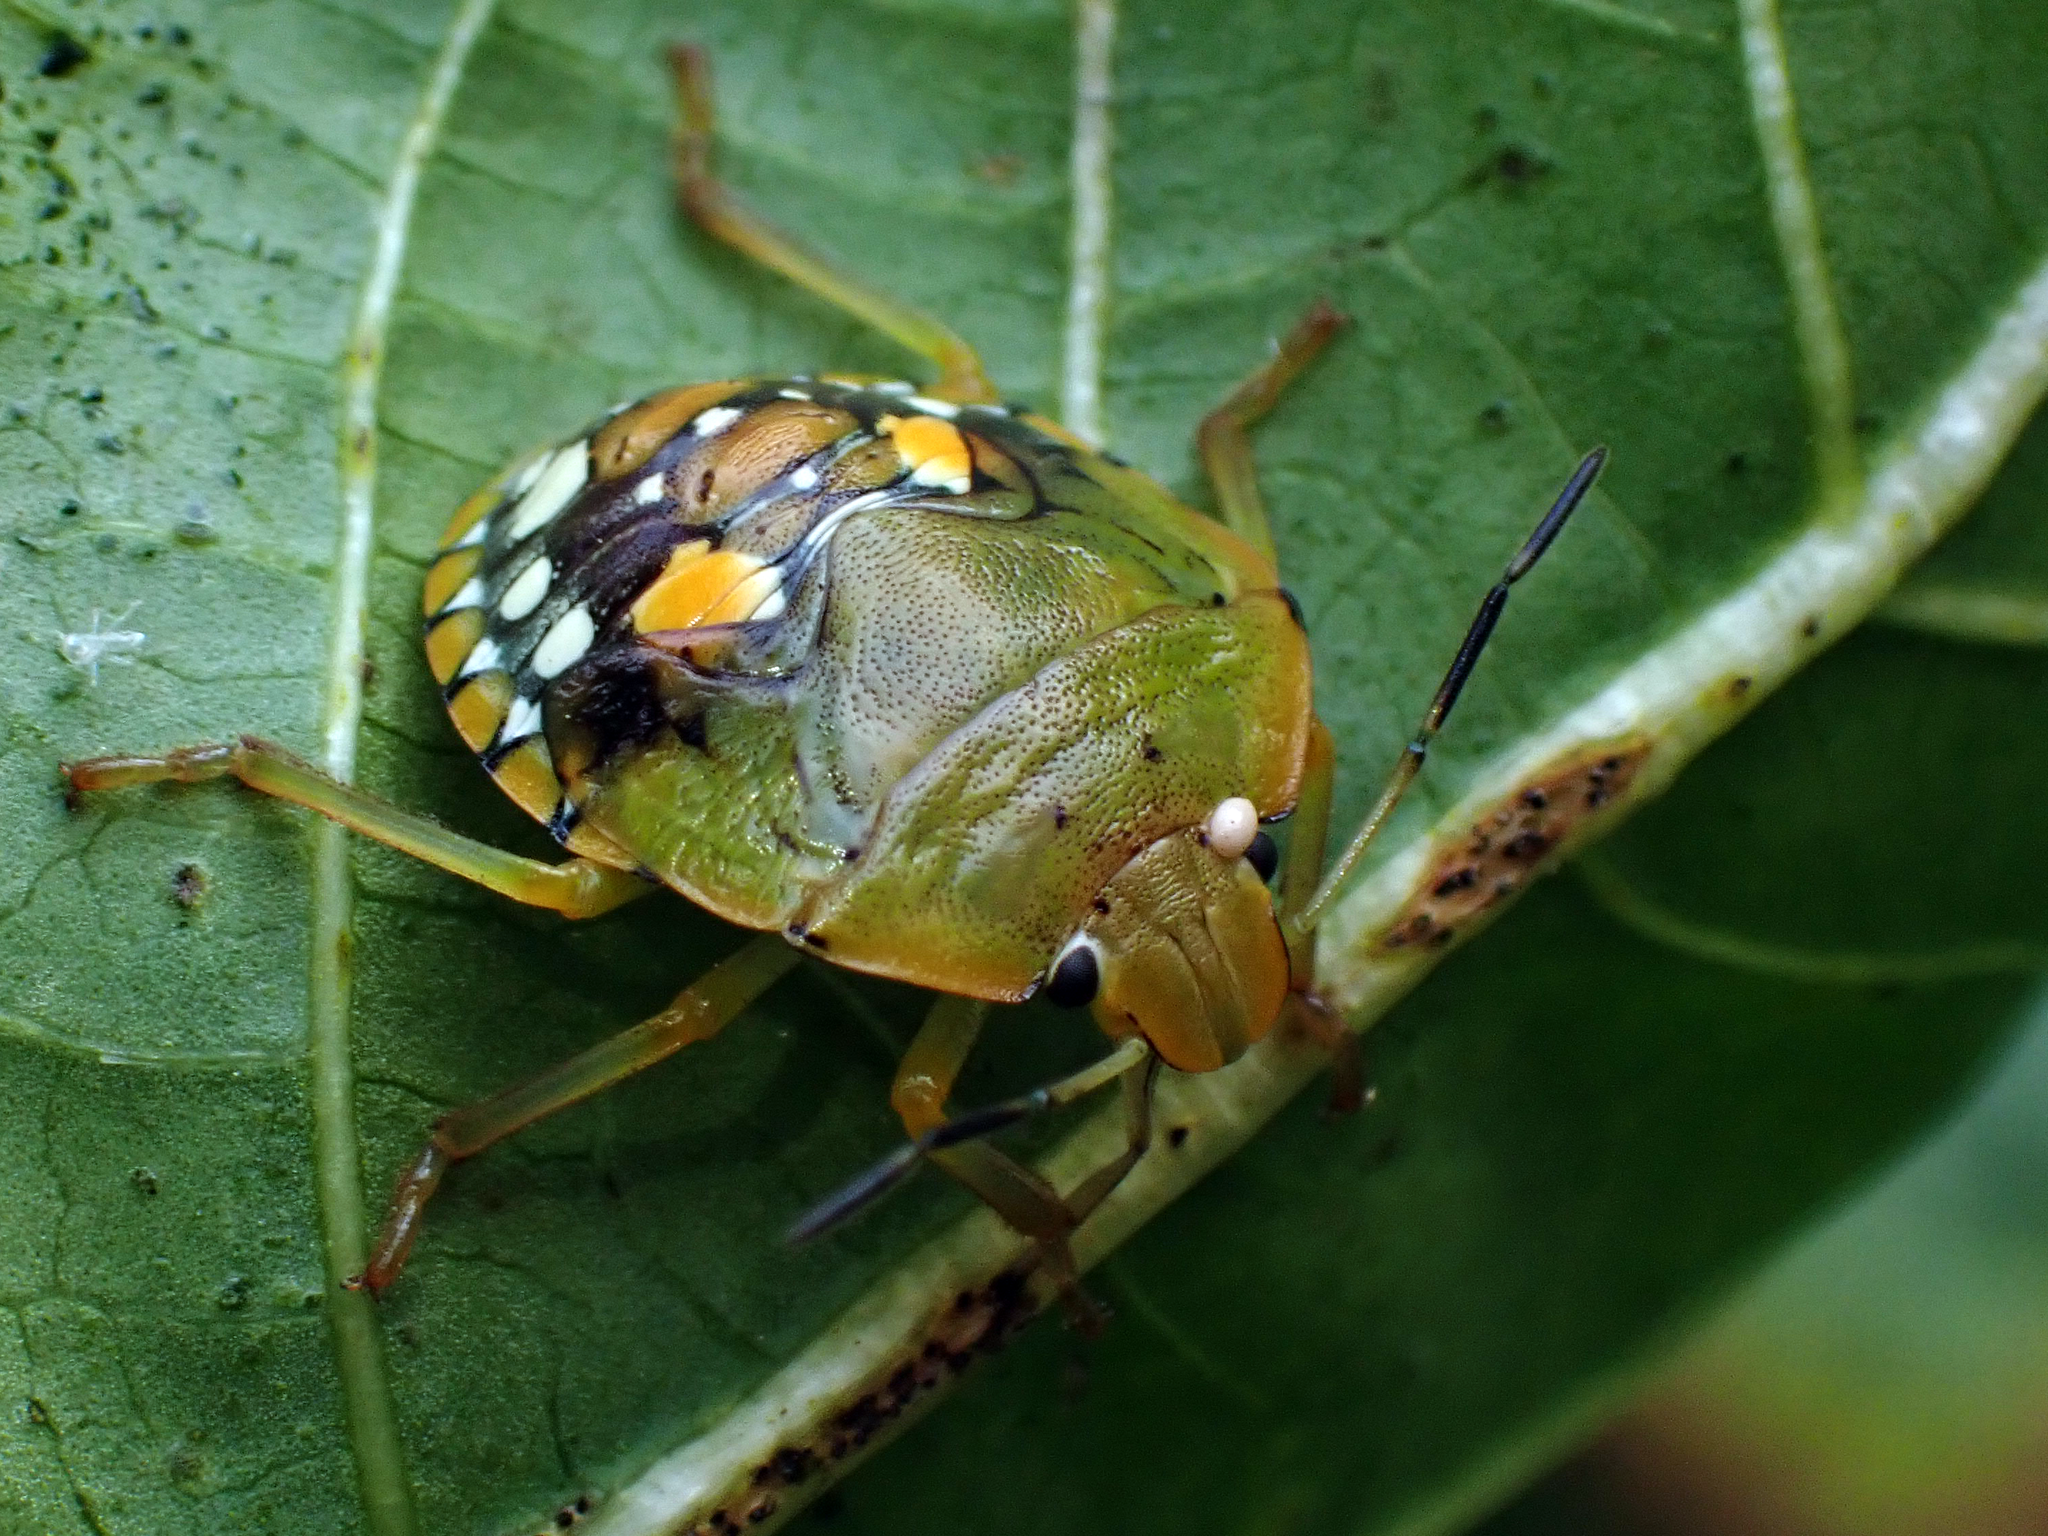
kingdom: Animalia
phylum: Arthropoda
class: Insecta
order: Hemiptera
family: Pentatomidae
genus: Acrosternum
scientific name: Acrosternum marginatum
